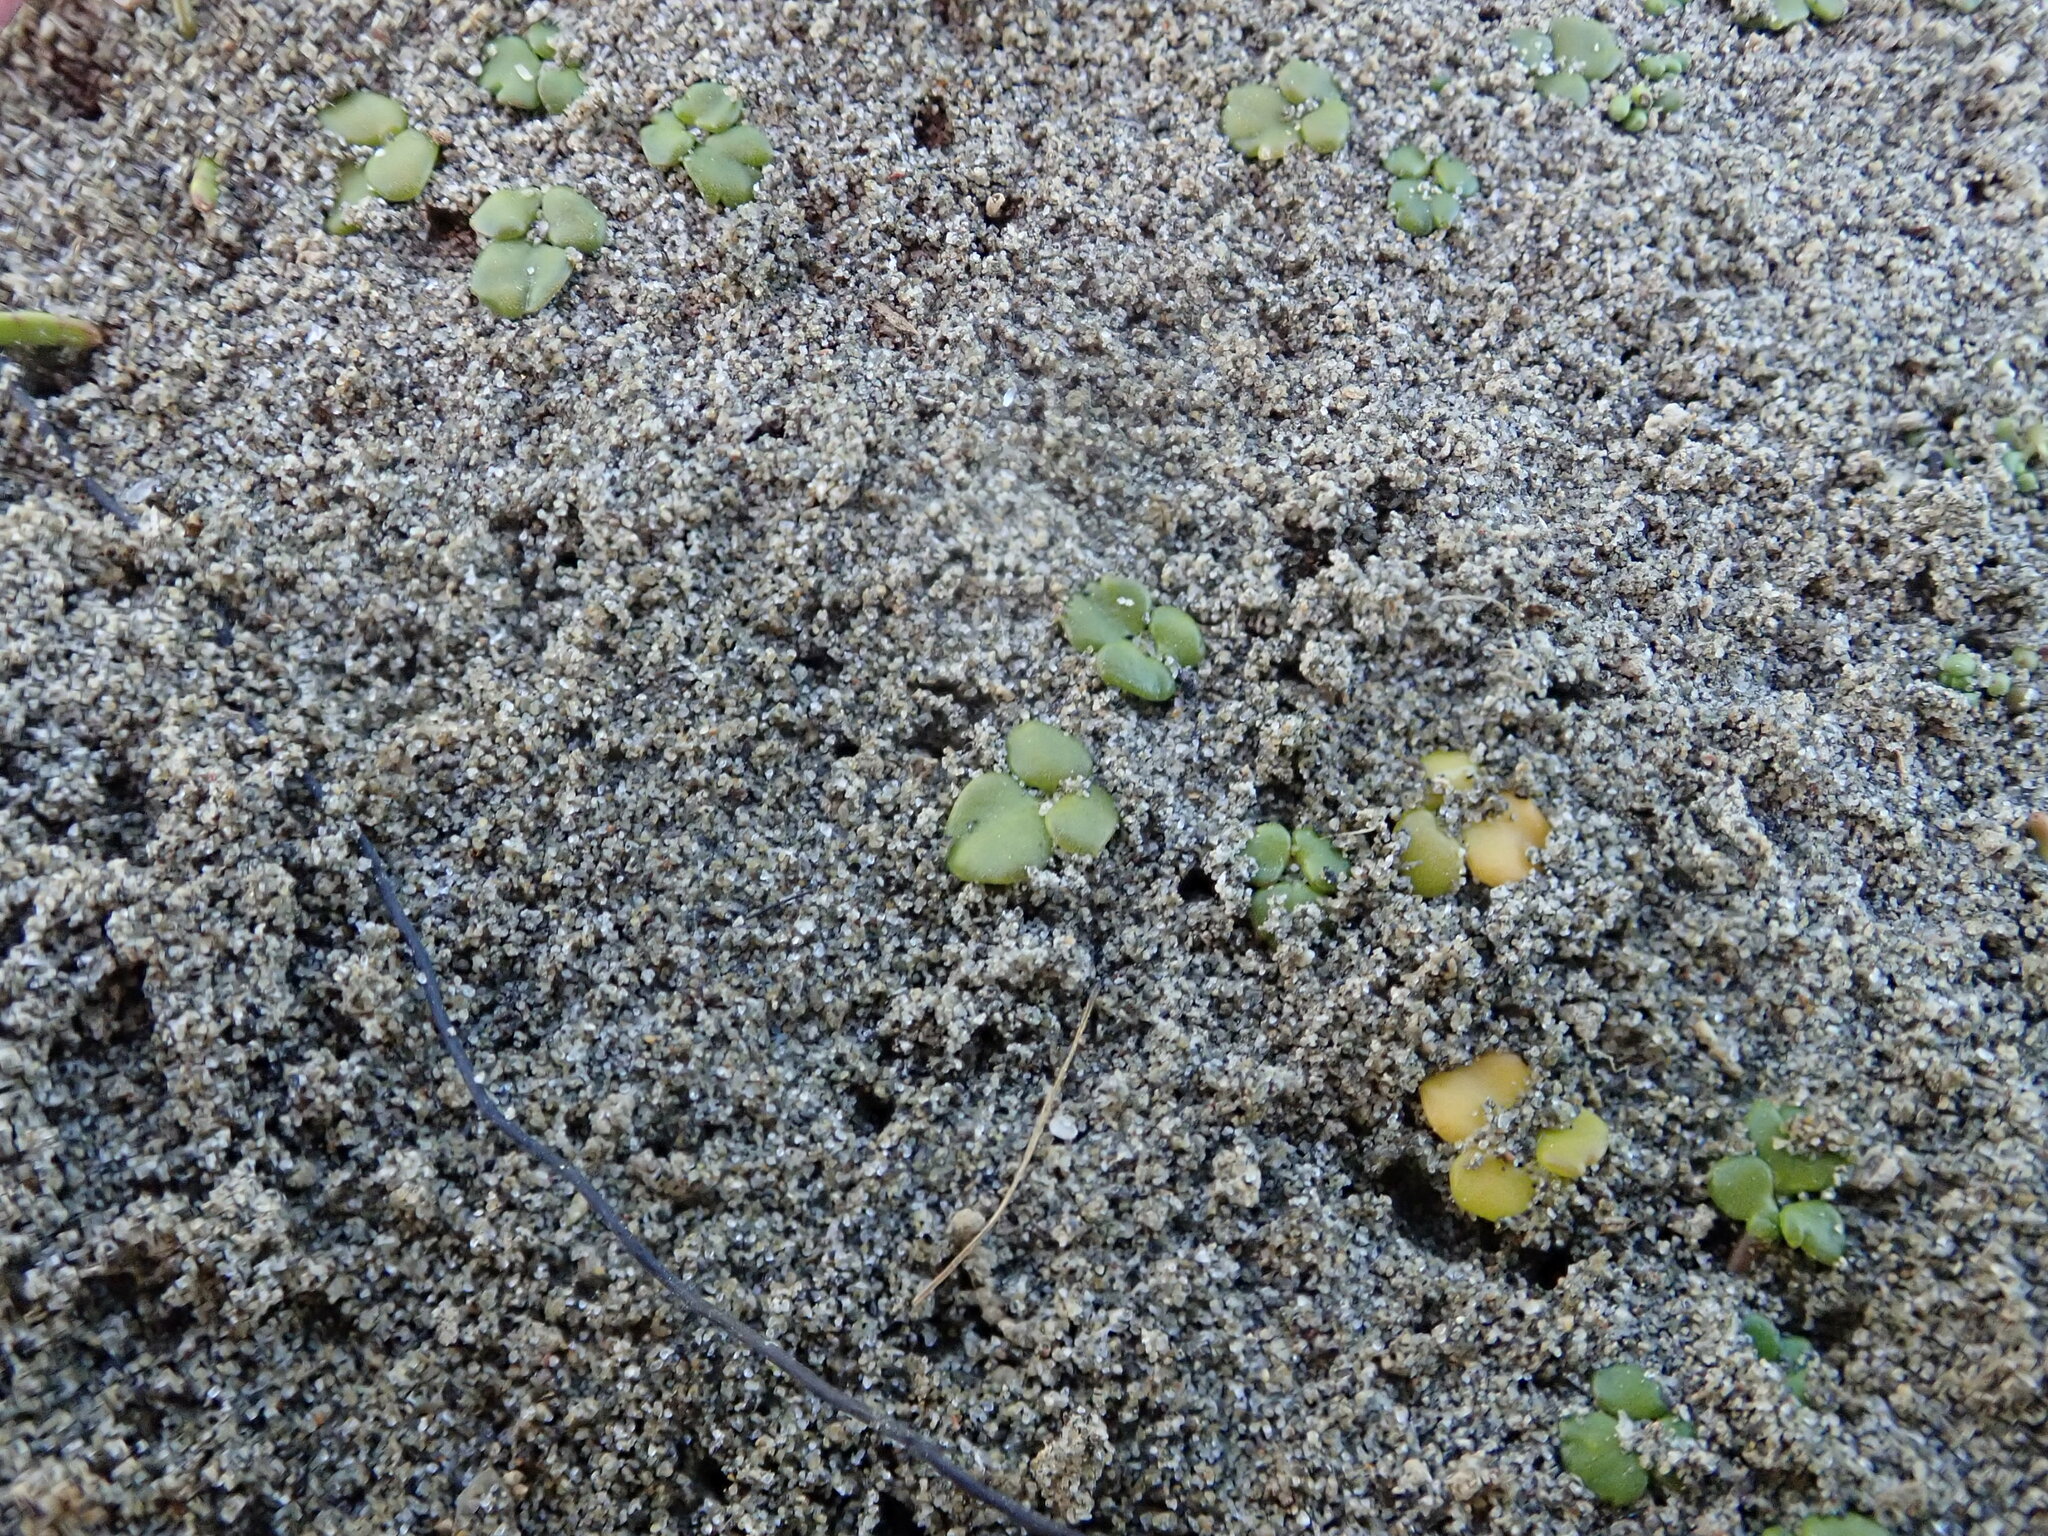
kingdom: Plantae
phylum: Tracheophyta
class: Magnoliopsida
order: Ranunculales
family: Ranunculaceae
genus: Ranunculus
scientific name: Ranunculus acaulis
